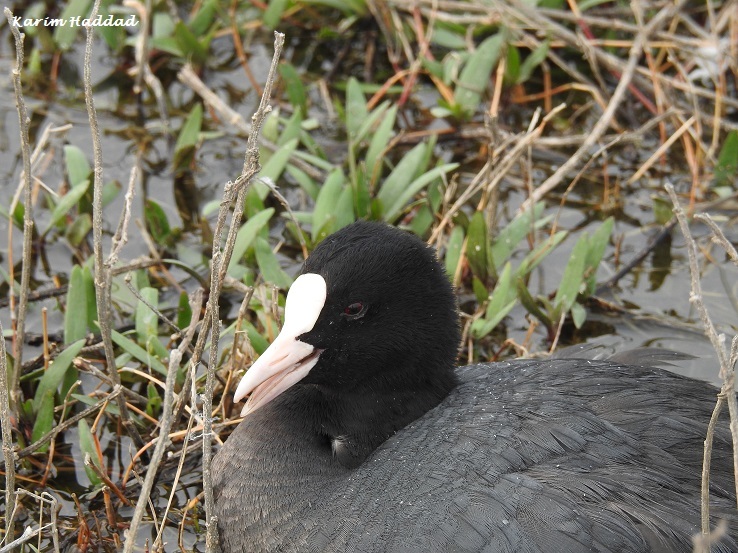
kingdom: Animalia
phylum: Chordata
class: Aves
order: Gruiformes
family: Rallidae
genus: Fulica
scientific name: Fulica atra
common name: Eurasian coot
